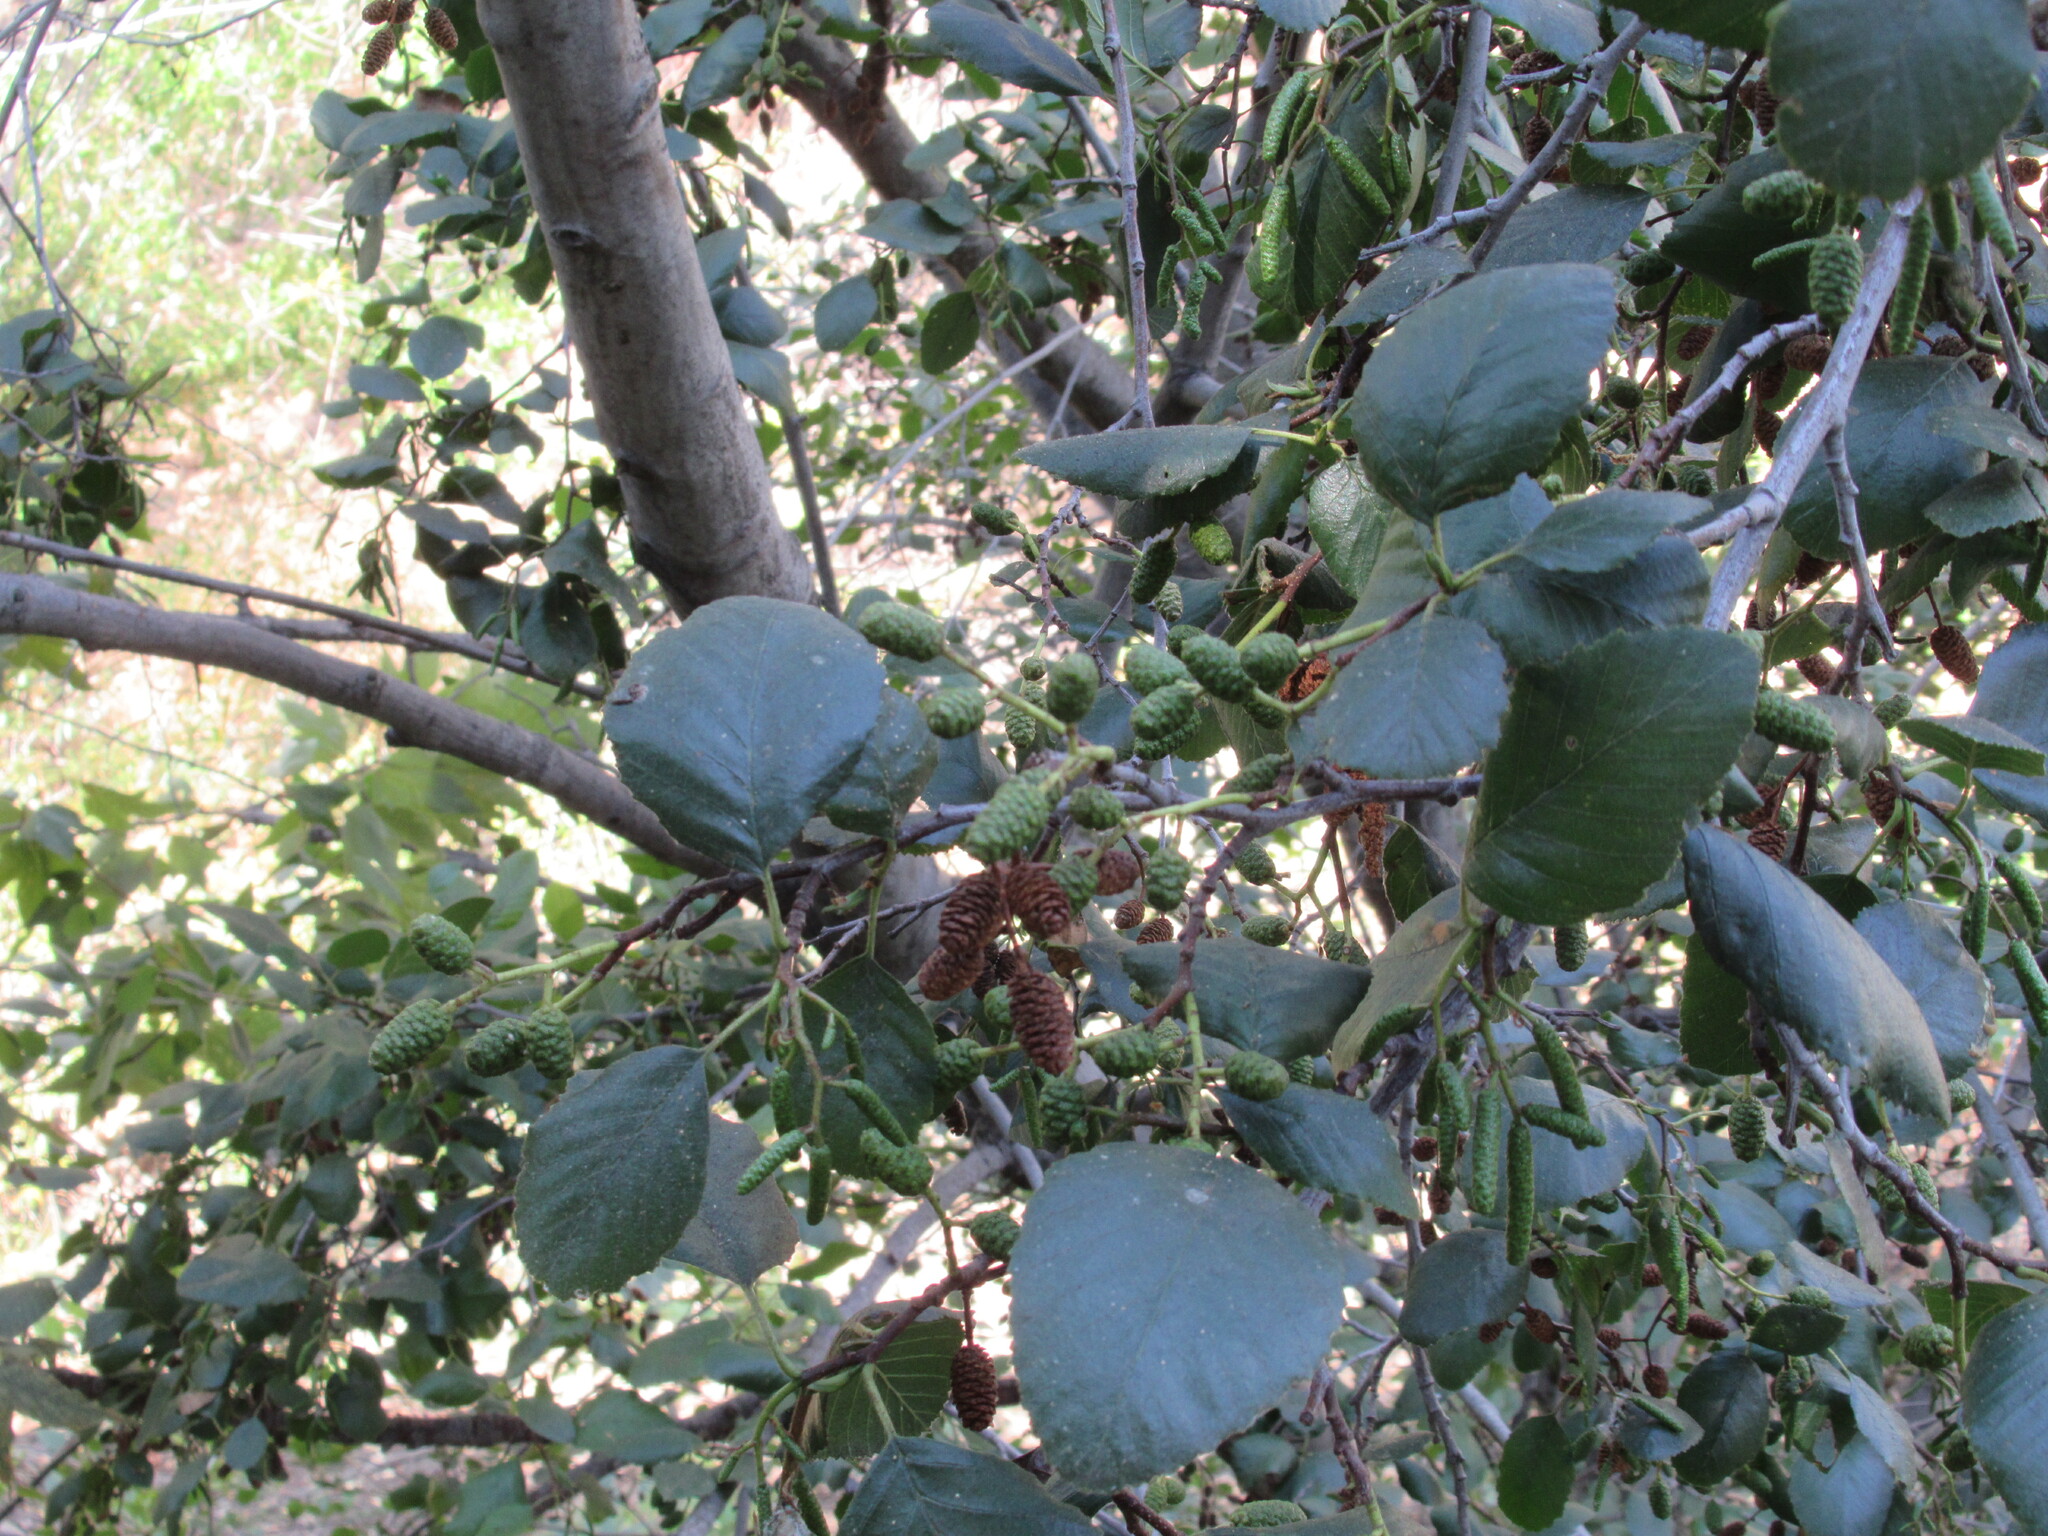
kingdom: Plantae
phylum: Tracheophyta
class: Magnoliopsida
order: Fagales
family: Betulaceae
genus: Alnus
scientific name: Alnus rhombifolia
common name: California alder
